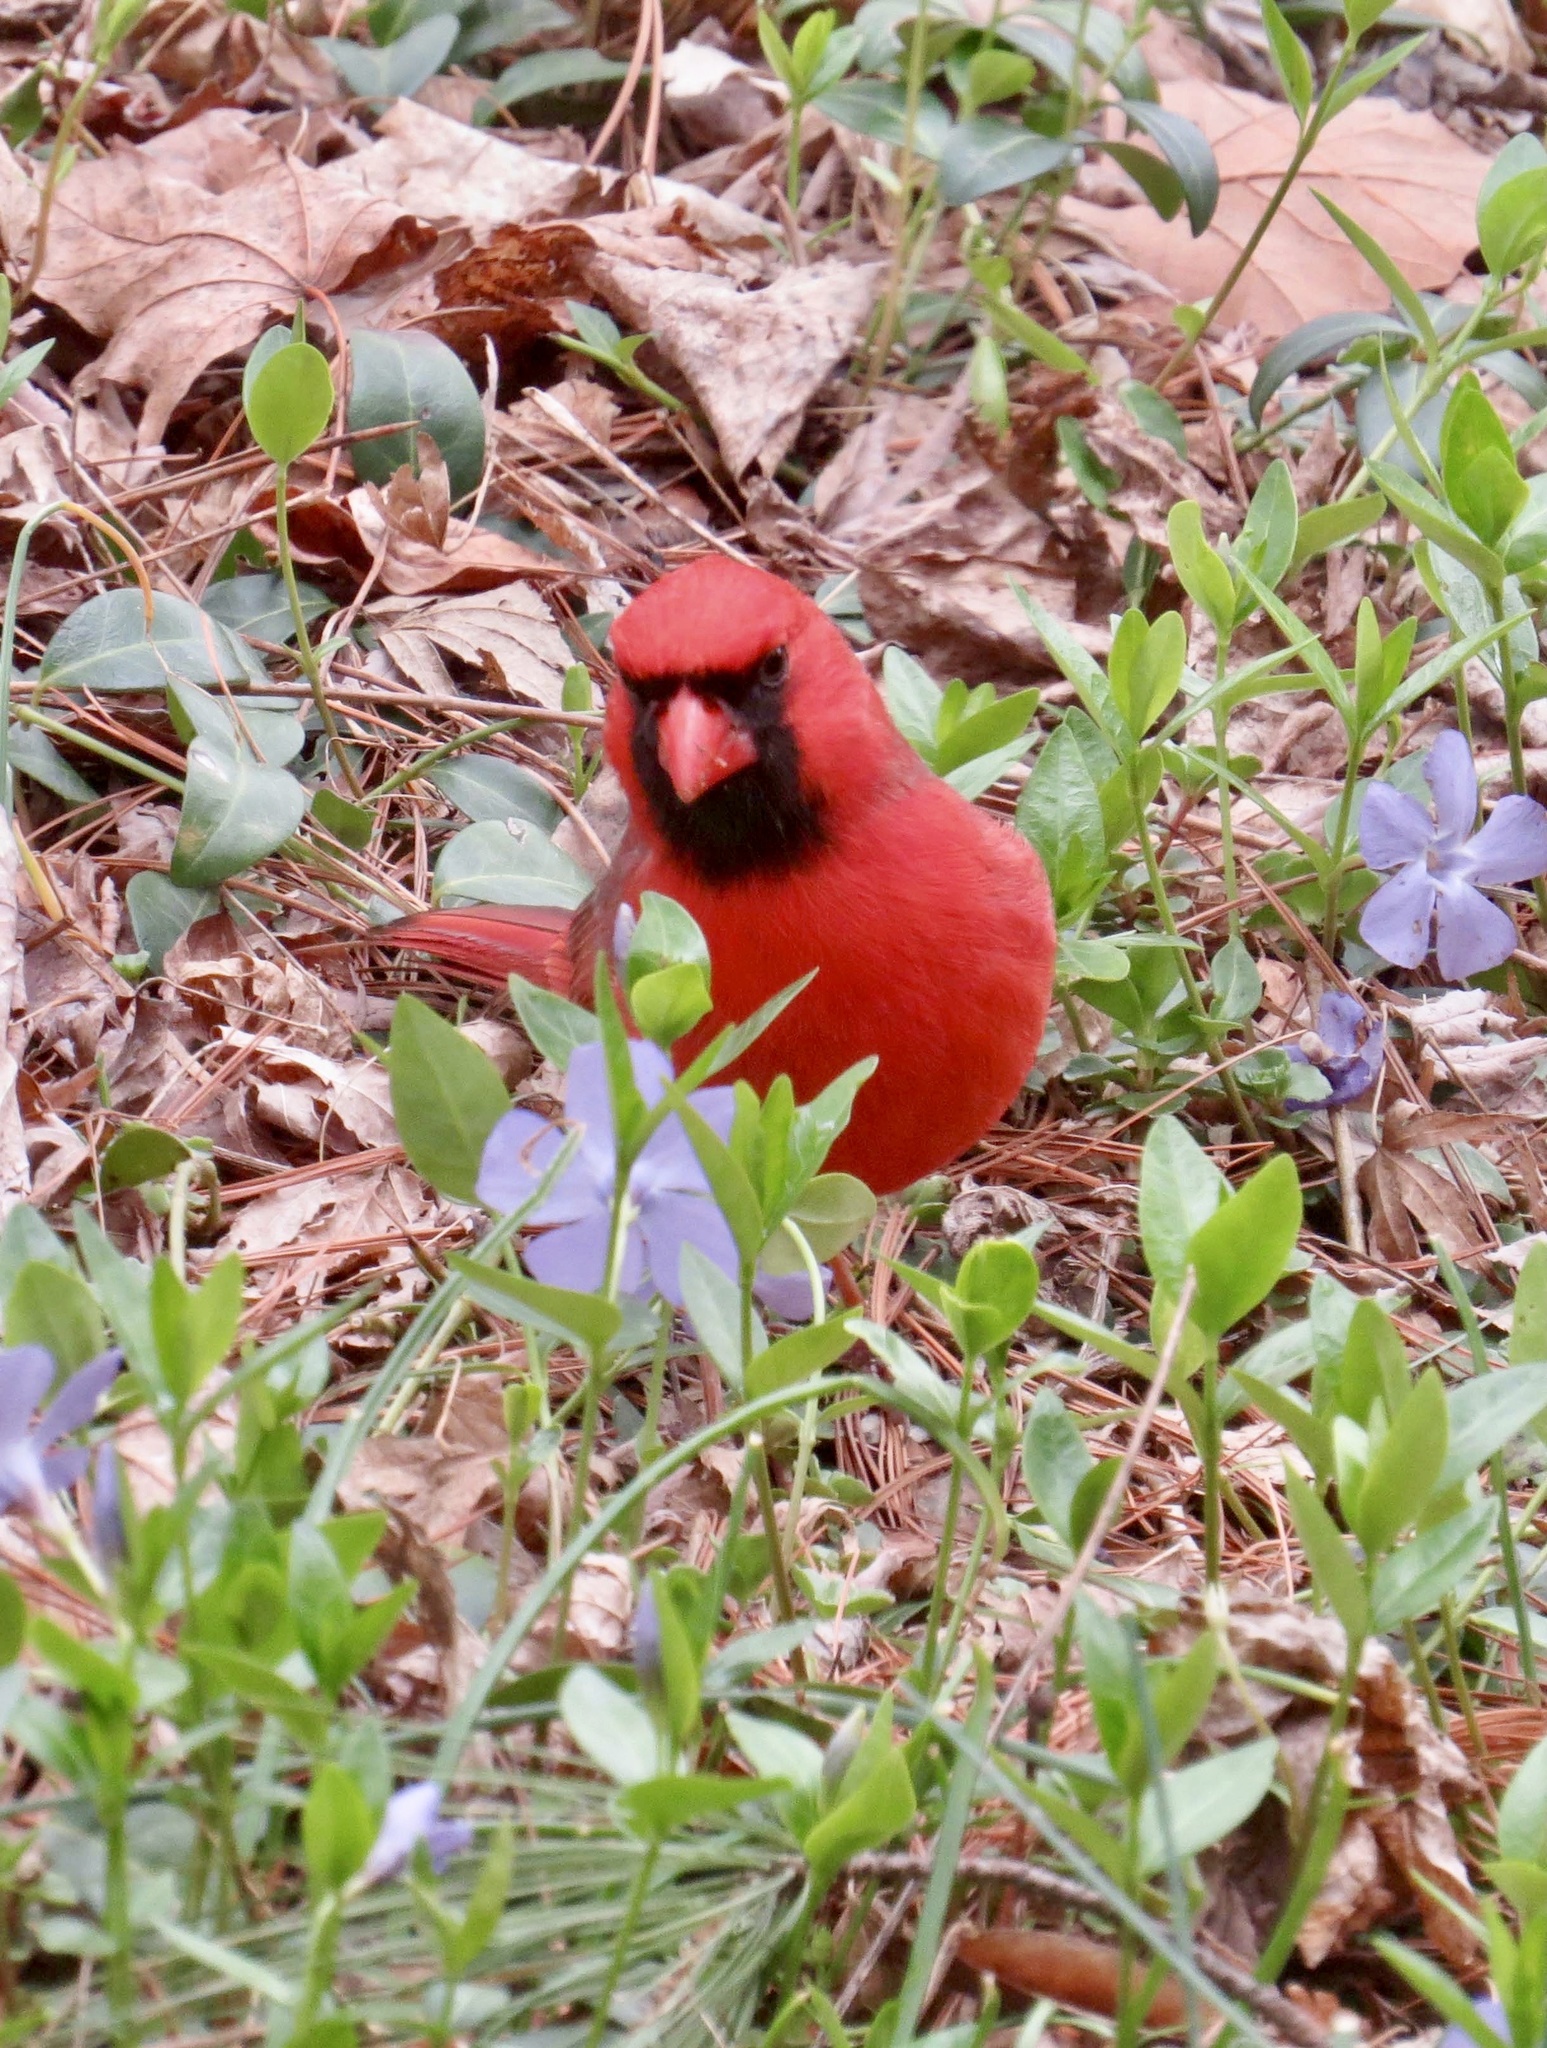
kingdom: Animalia
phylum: Chordata
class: Aves
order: Passeriformes
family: Cardinalidae
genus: Cardinalis
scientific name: Cardinalis cardinalis
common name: Northern cardinal
